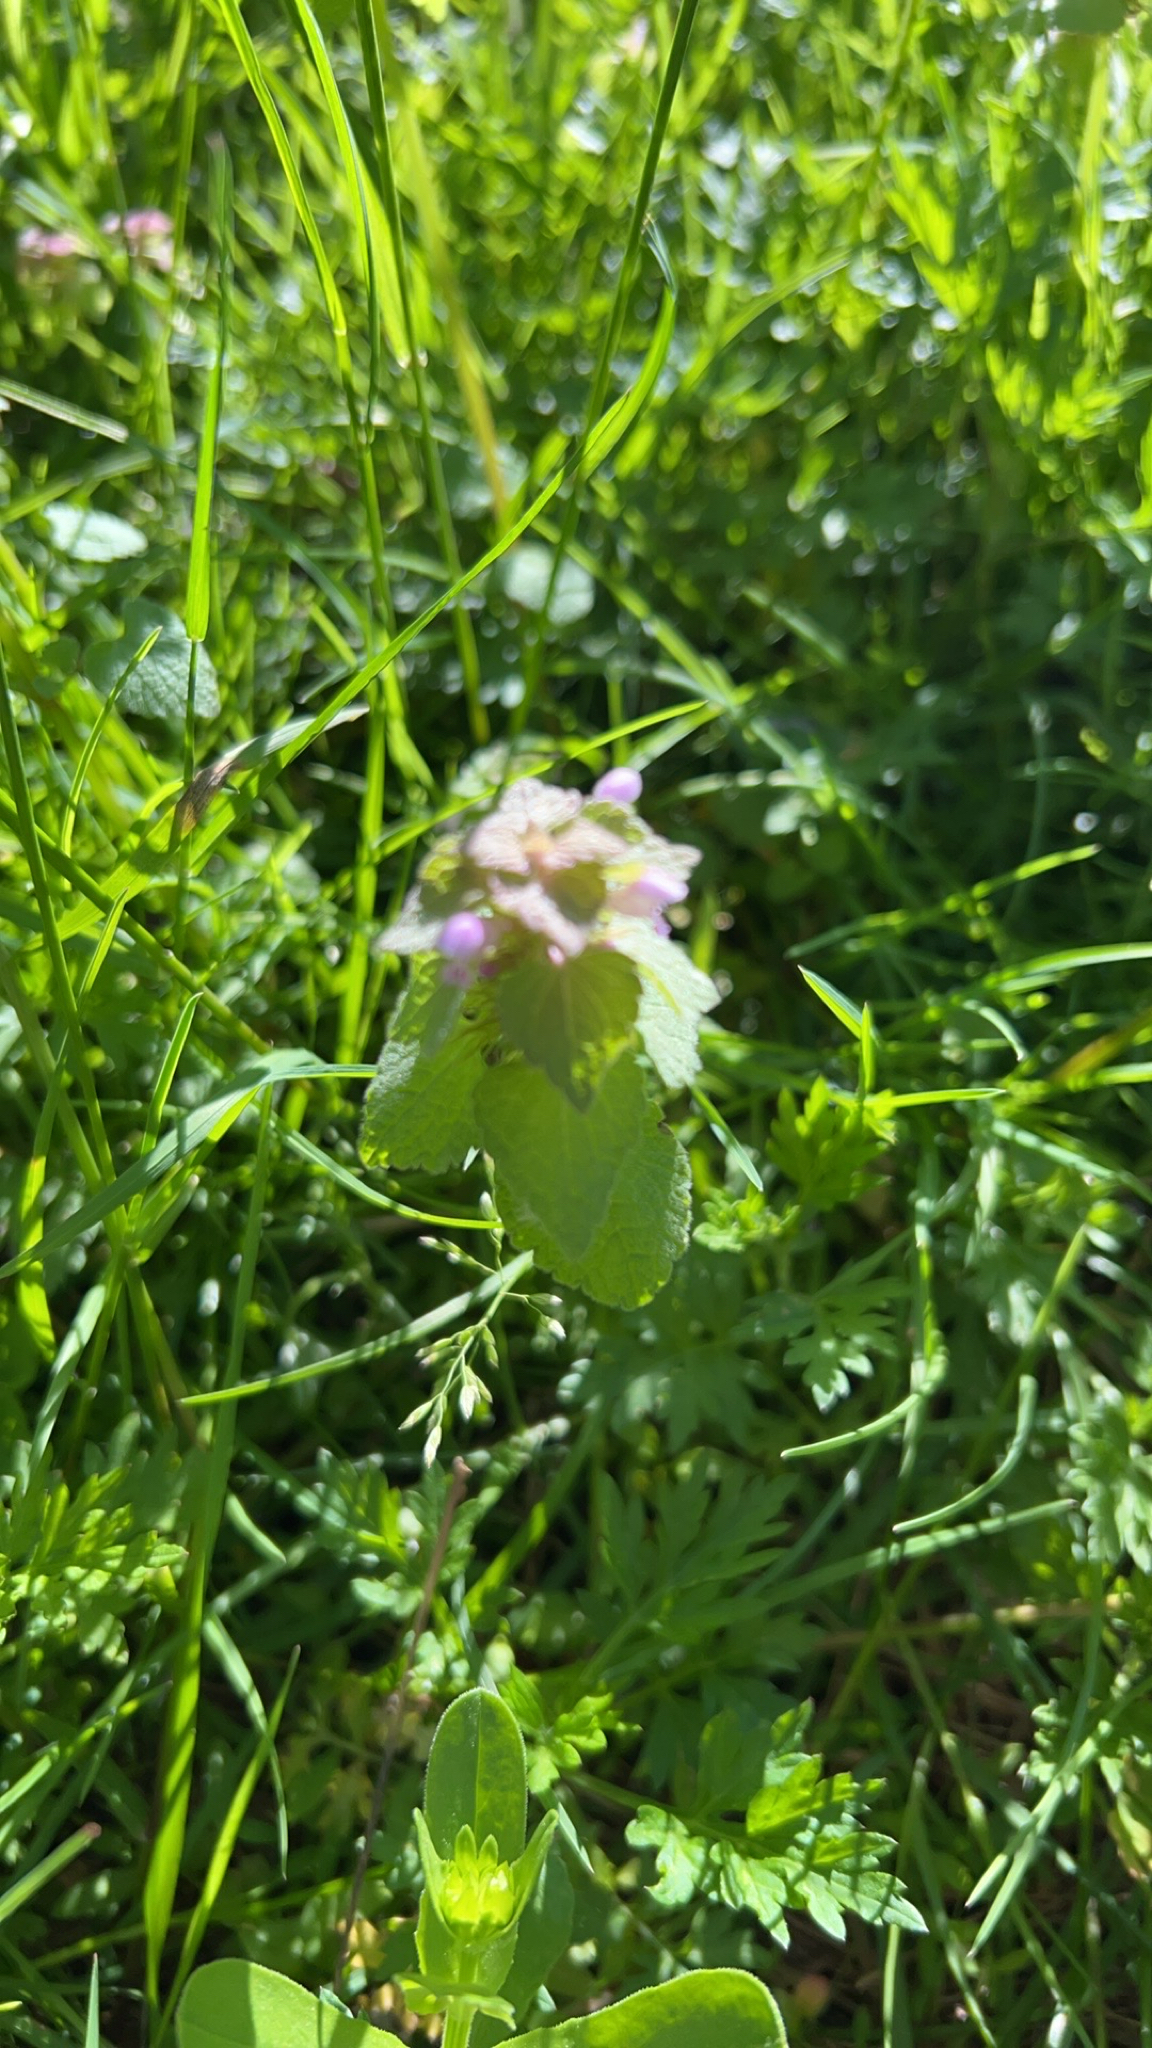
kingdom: Plantae
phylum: Tracheophyta
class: Magnoliopsida
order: Lamiales
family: Lamiaceae
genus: Lamium
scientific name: Lamium purpureum
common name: Red dead-nettle
